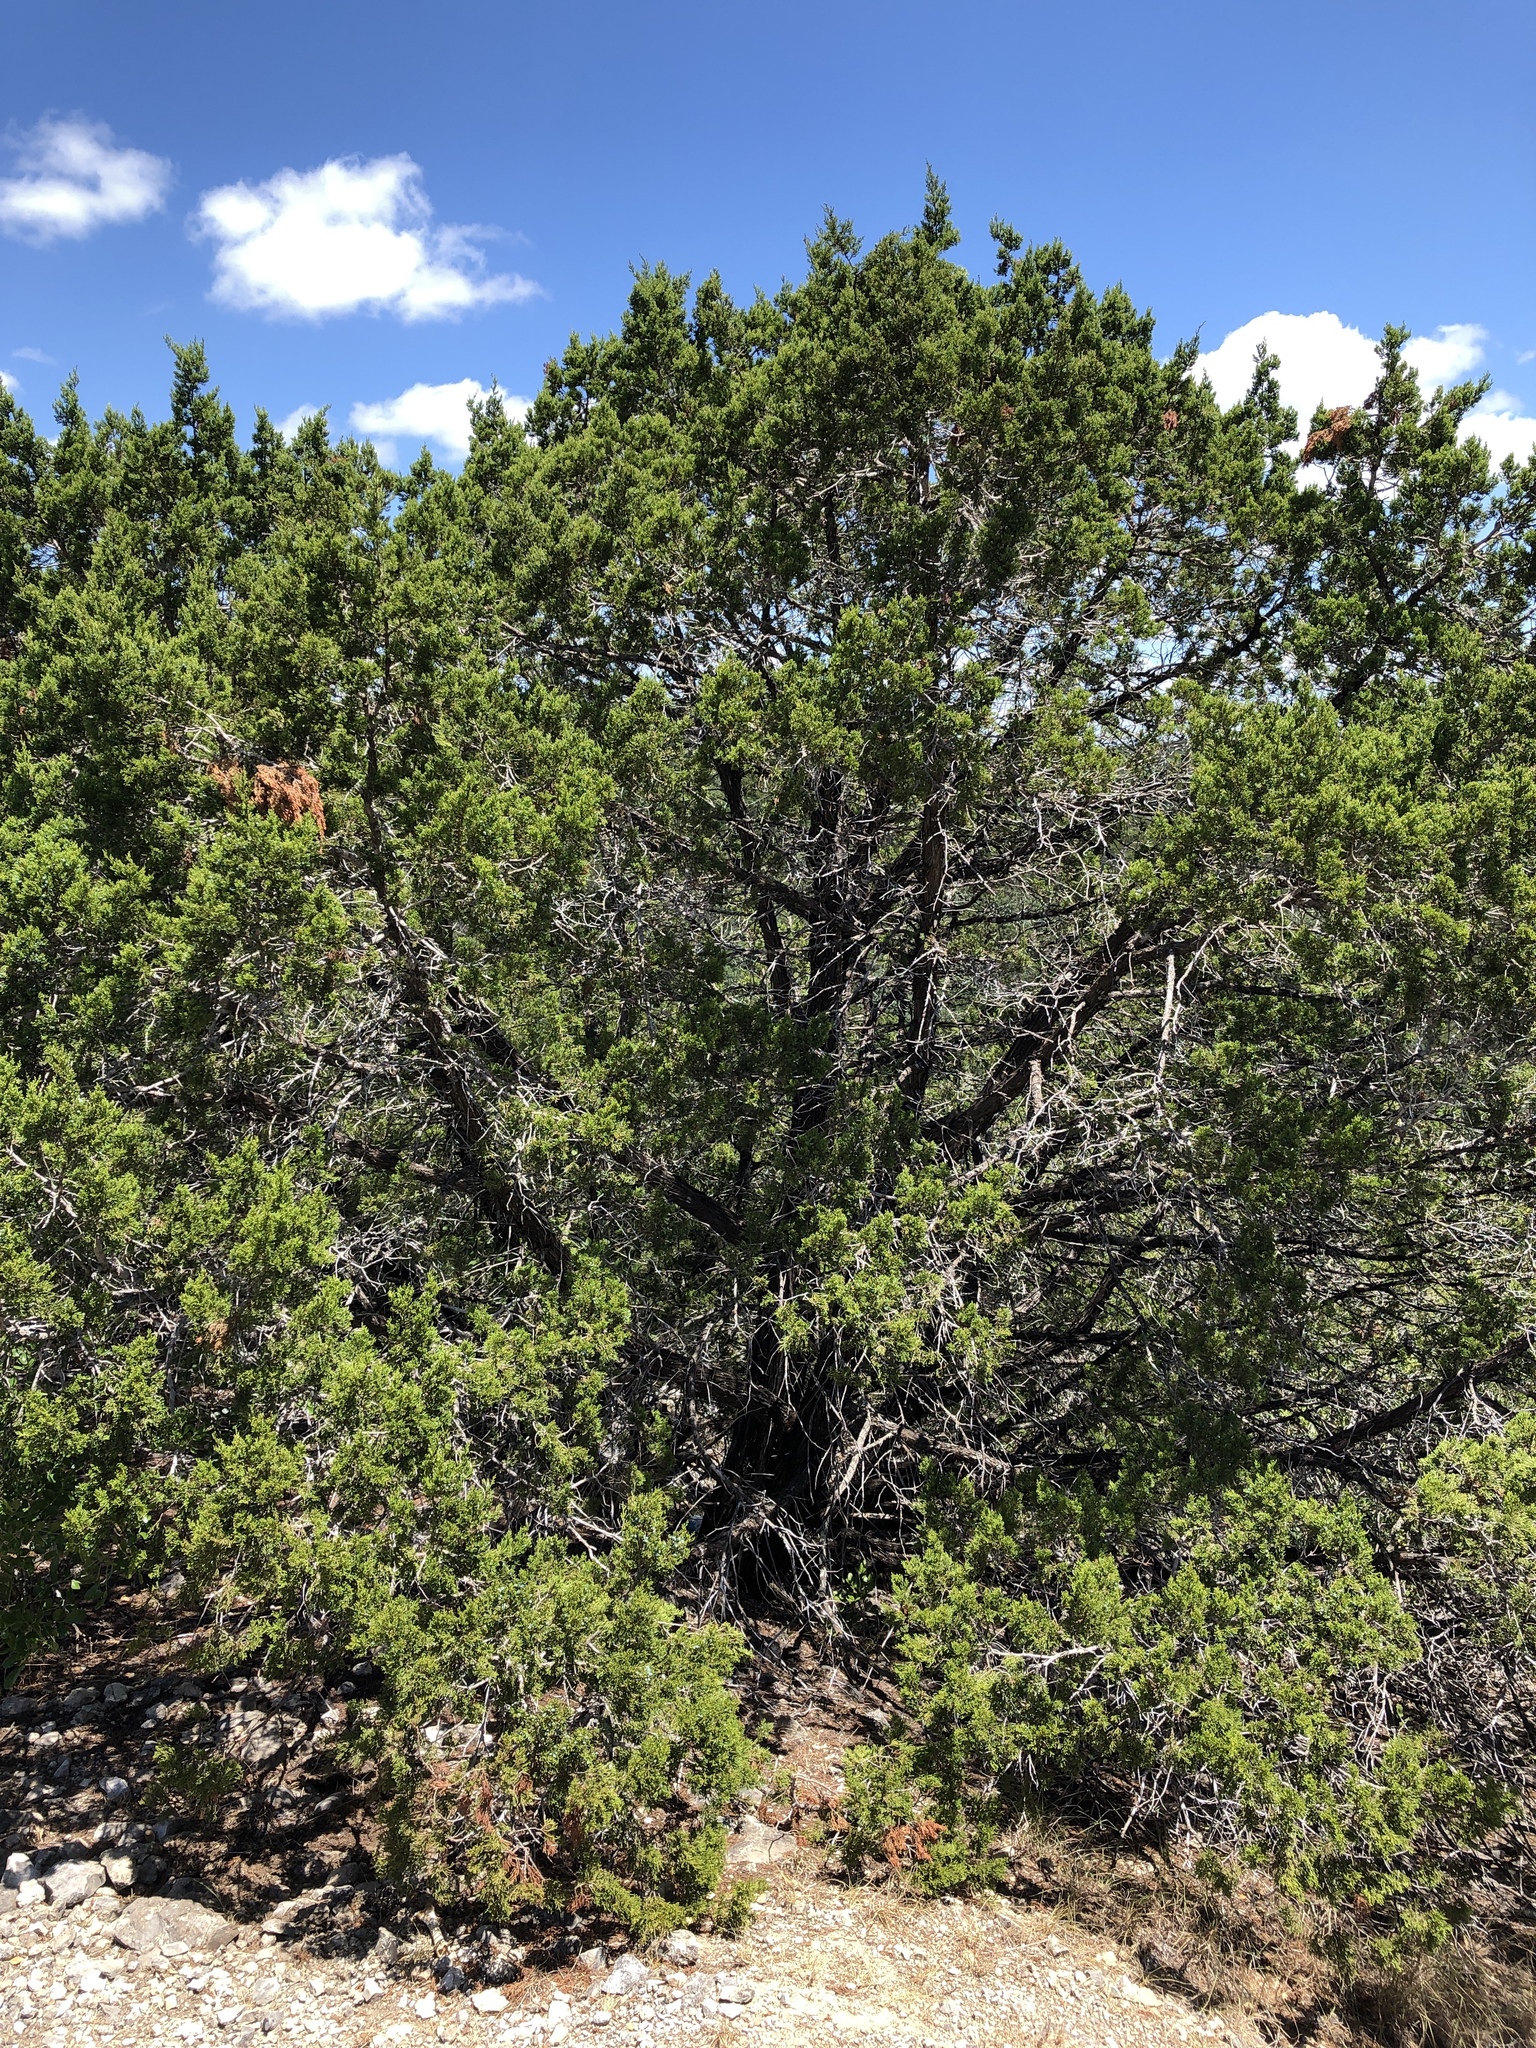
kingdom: Plantae
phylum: Tracheophyta
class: Pinopsida
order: Pinales
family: Cupressaceae
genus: Juniperus
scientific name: Juniperus ashei
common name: Mexican juniper
